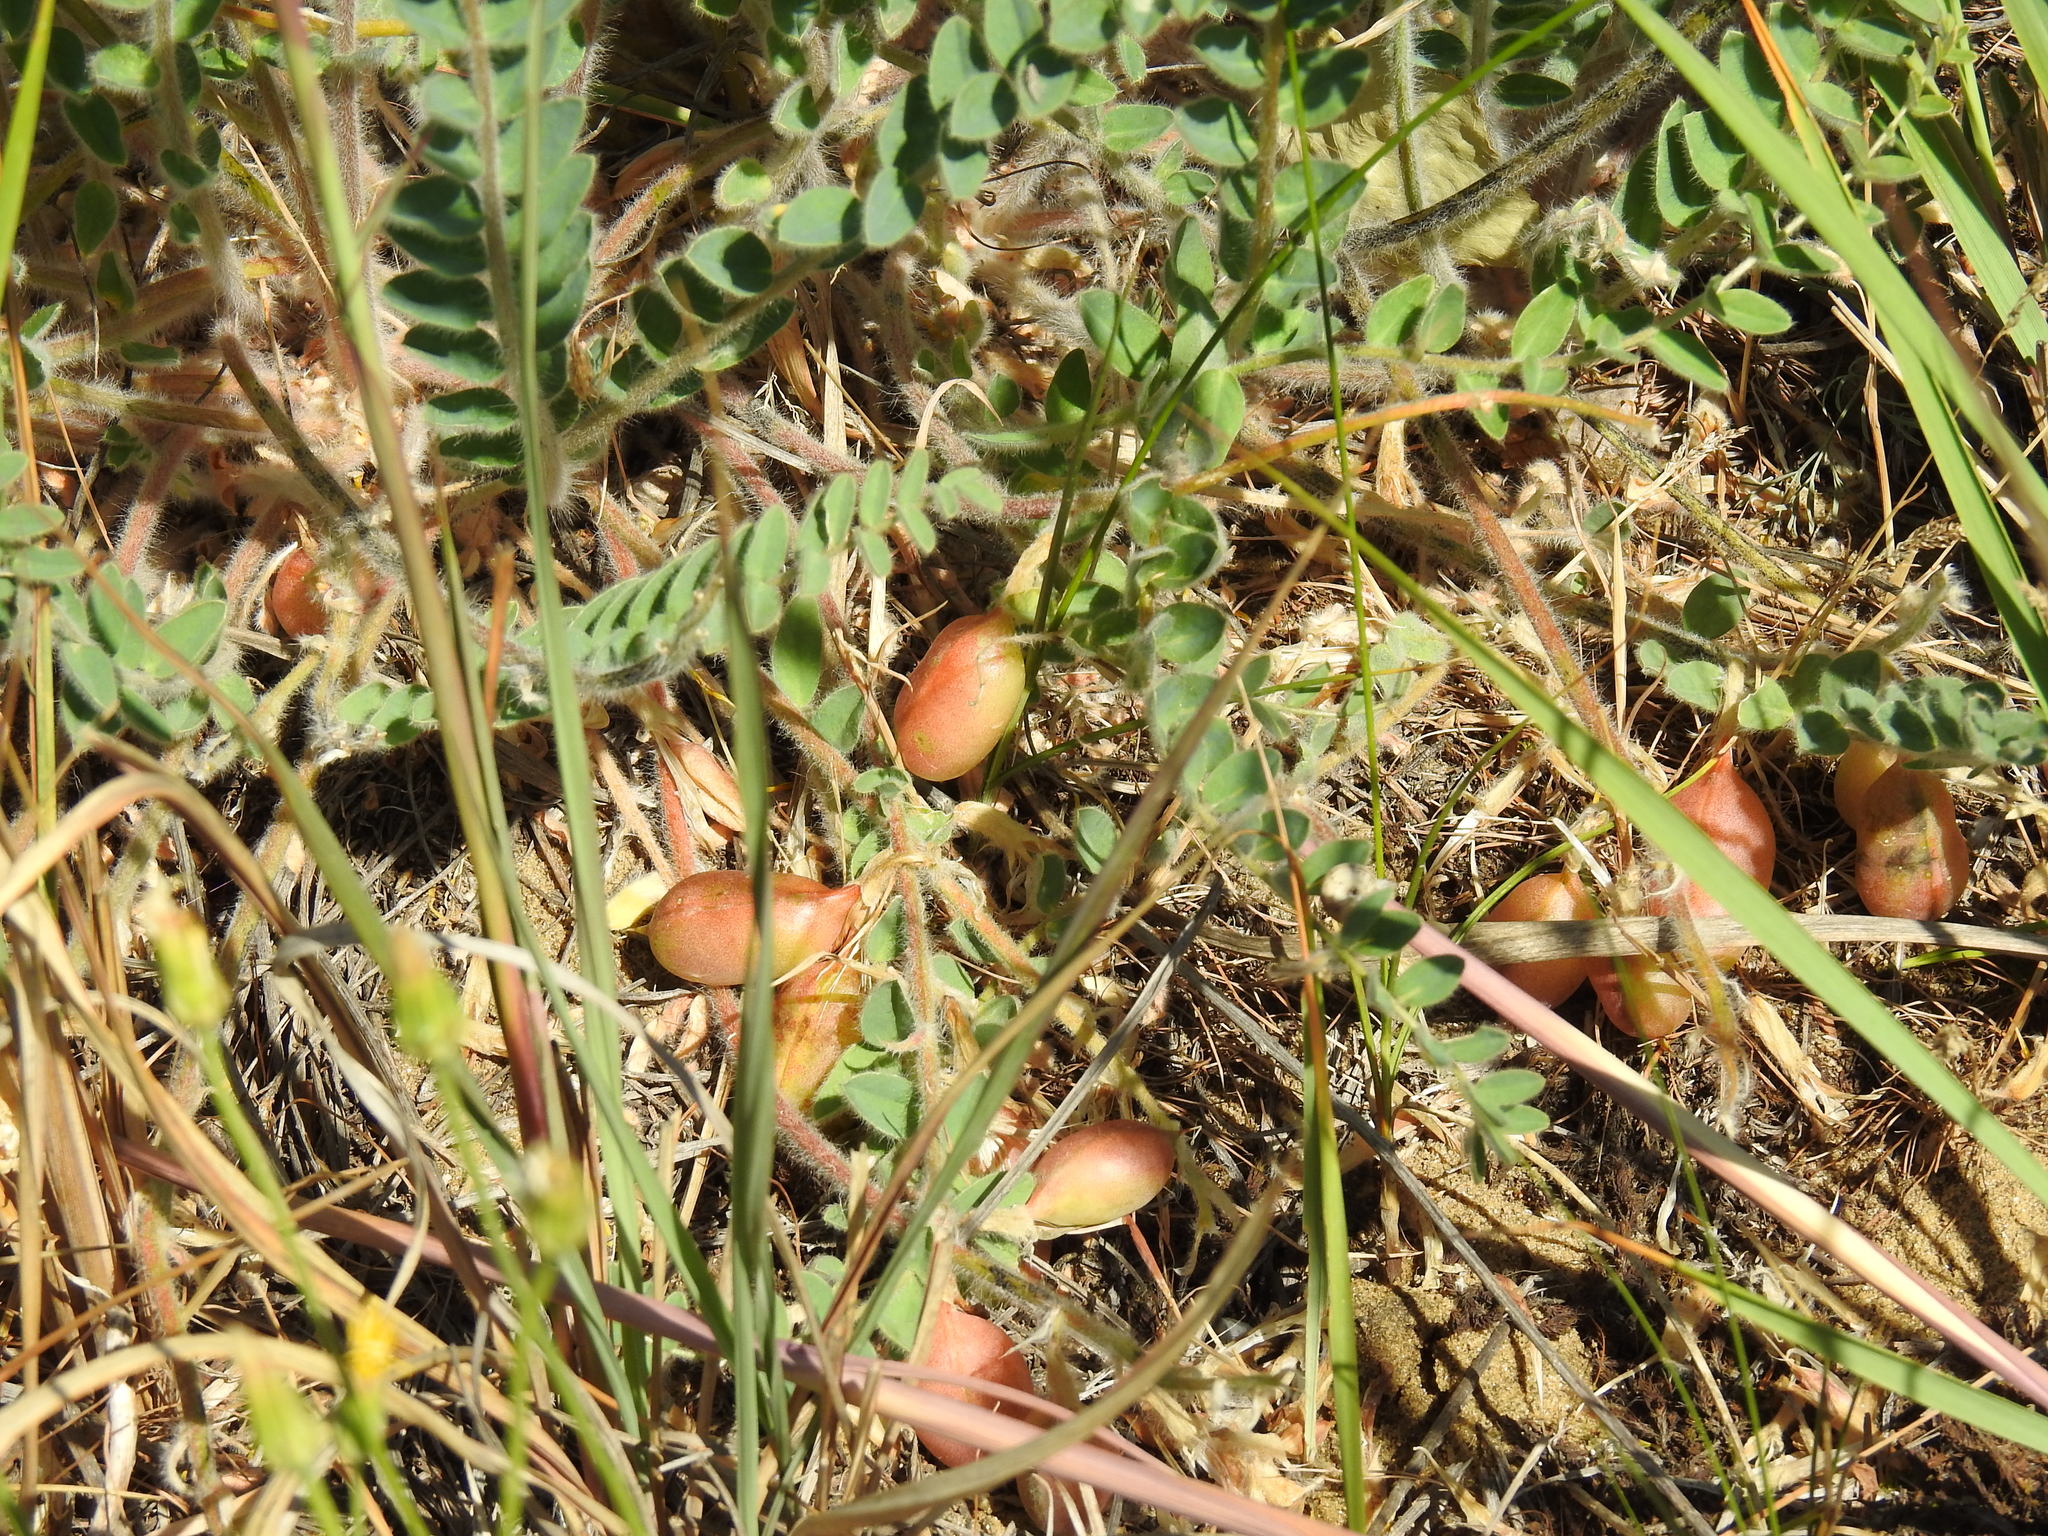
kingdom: Plantae
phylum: Tracheophyta
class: Magnoliopsida
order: Fabales
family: Fabaceae
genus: Astragalus
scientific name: Astragalus longipetalus
